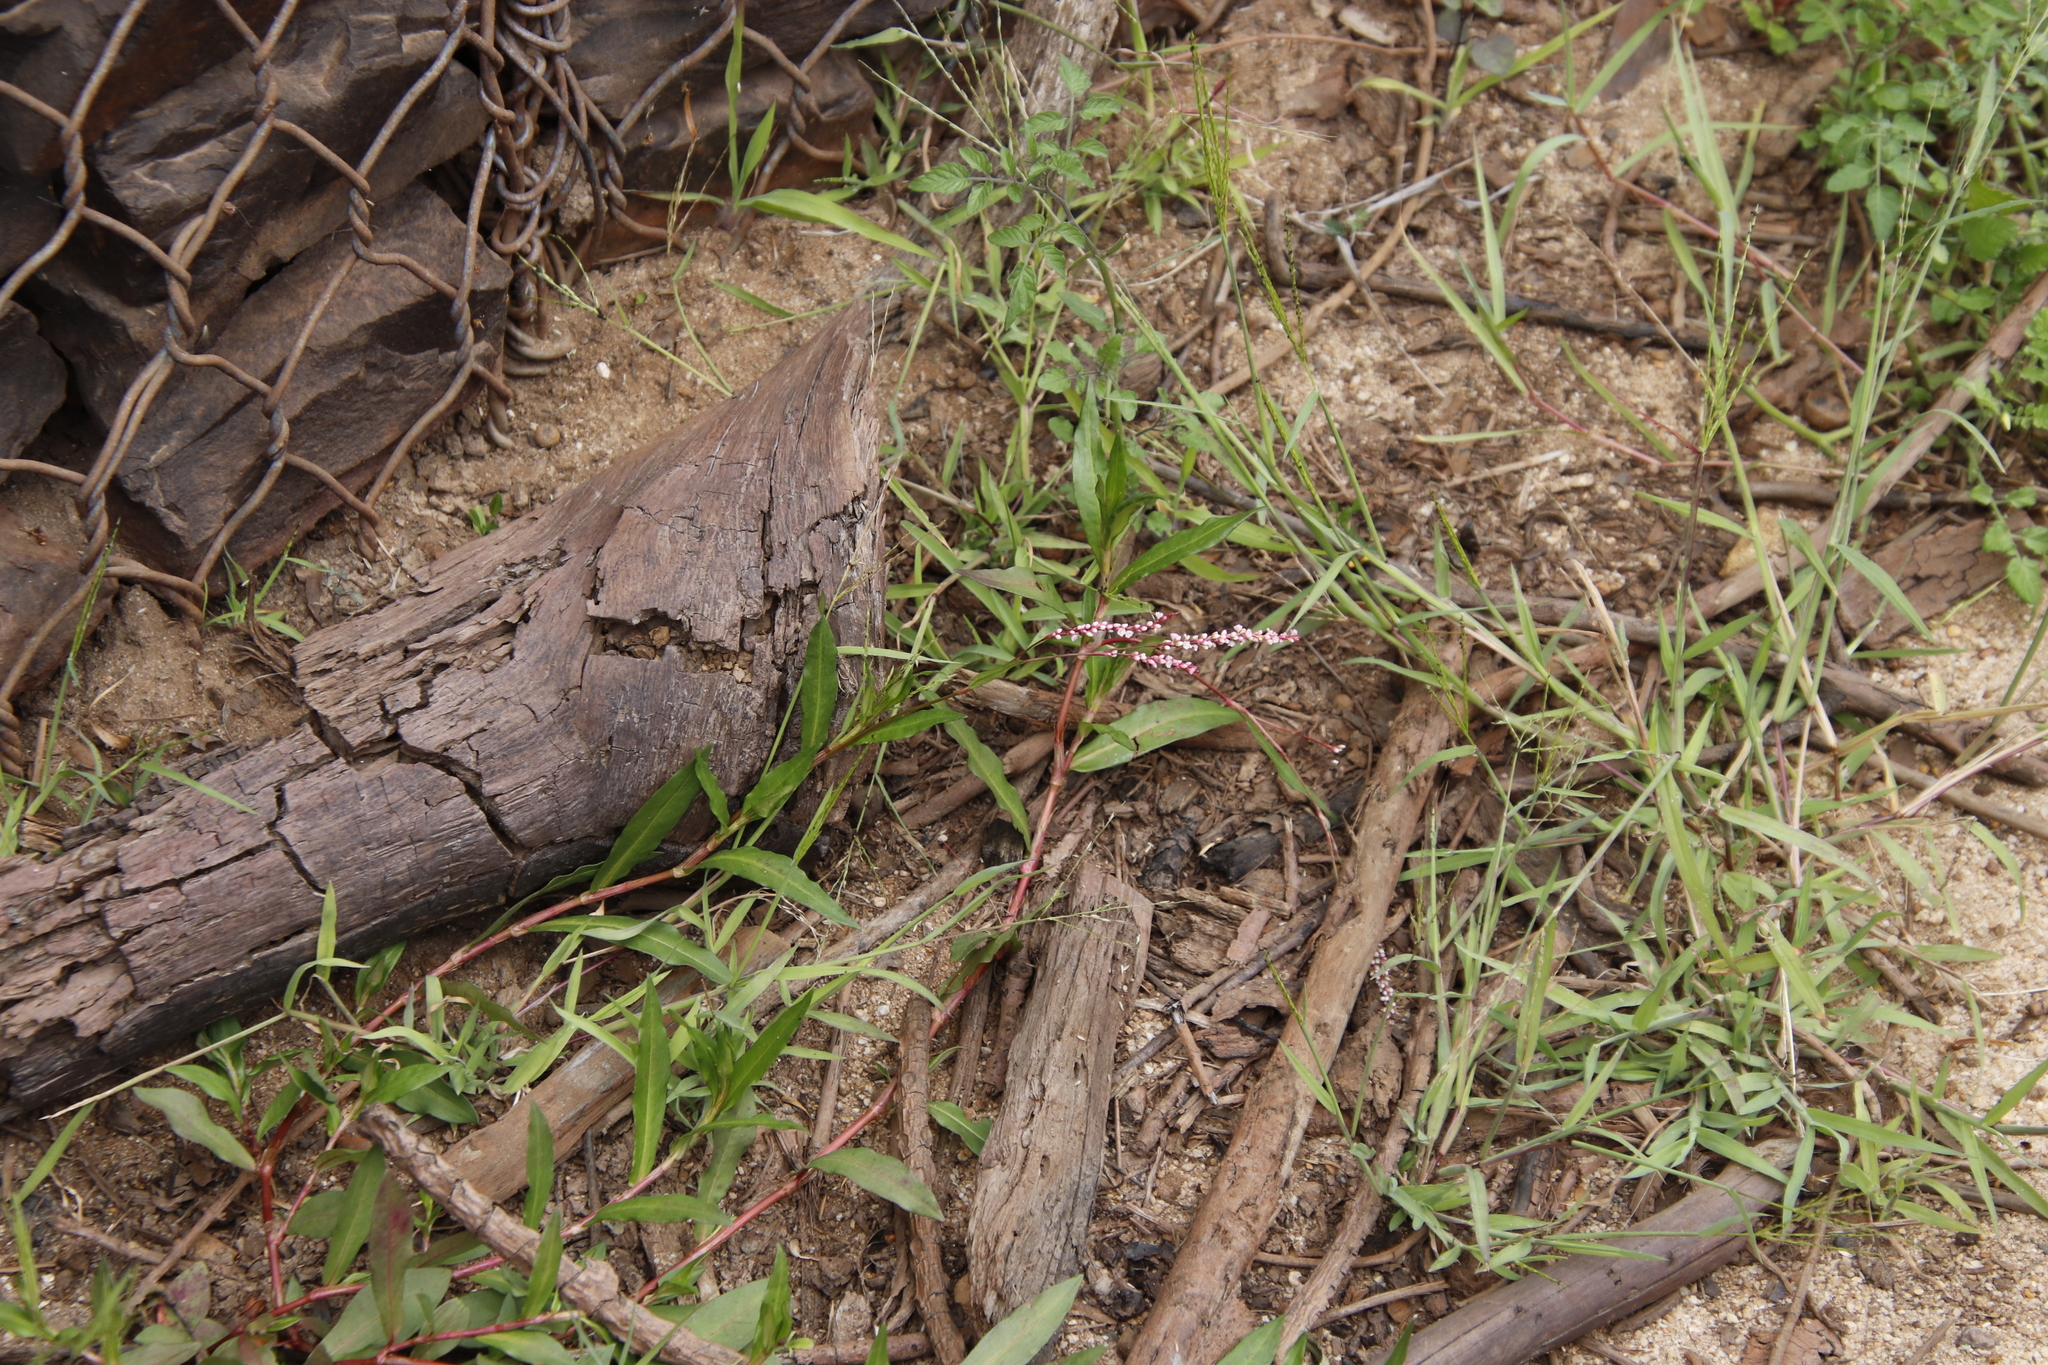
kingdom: Plantae
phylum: Tracheophyta
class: Magnoliopsida
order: Caryophyllales
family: Polygonaceae
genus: Persicaria
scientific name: Persicaria decipiens
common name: Willow-weed
